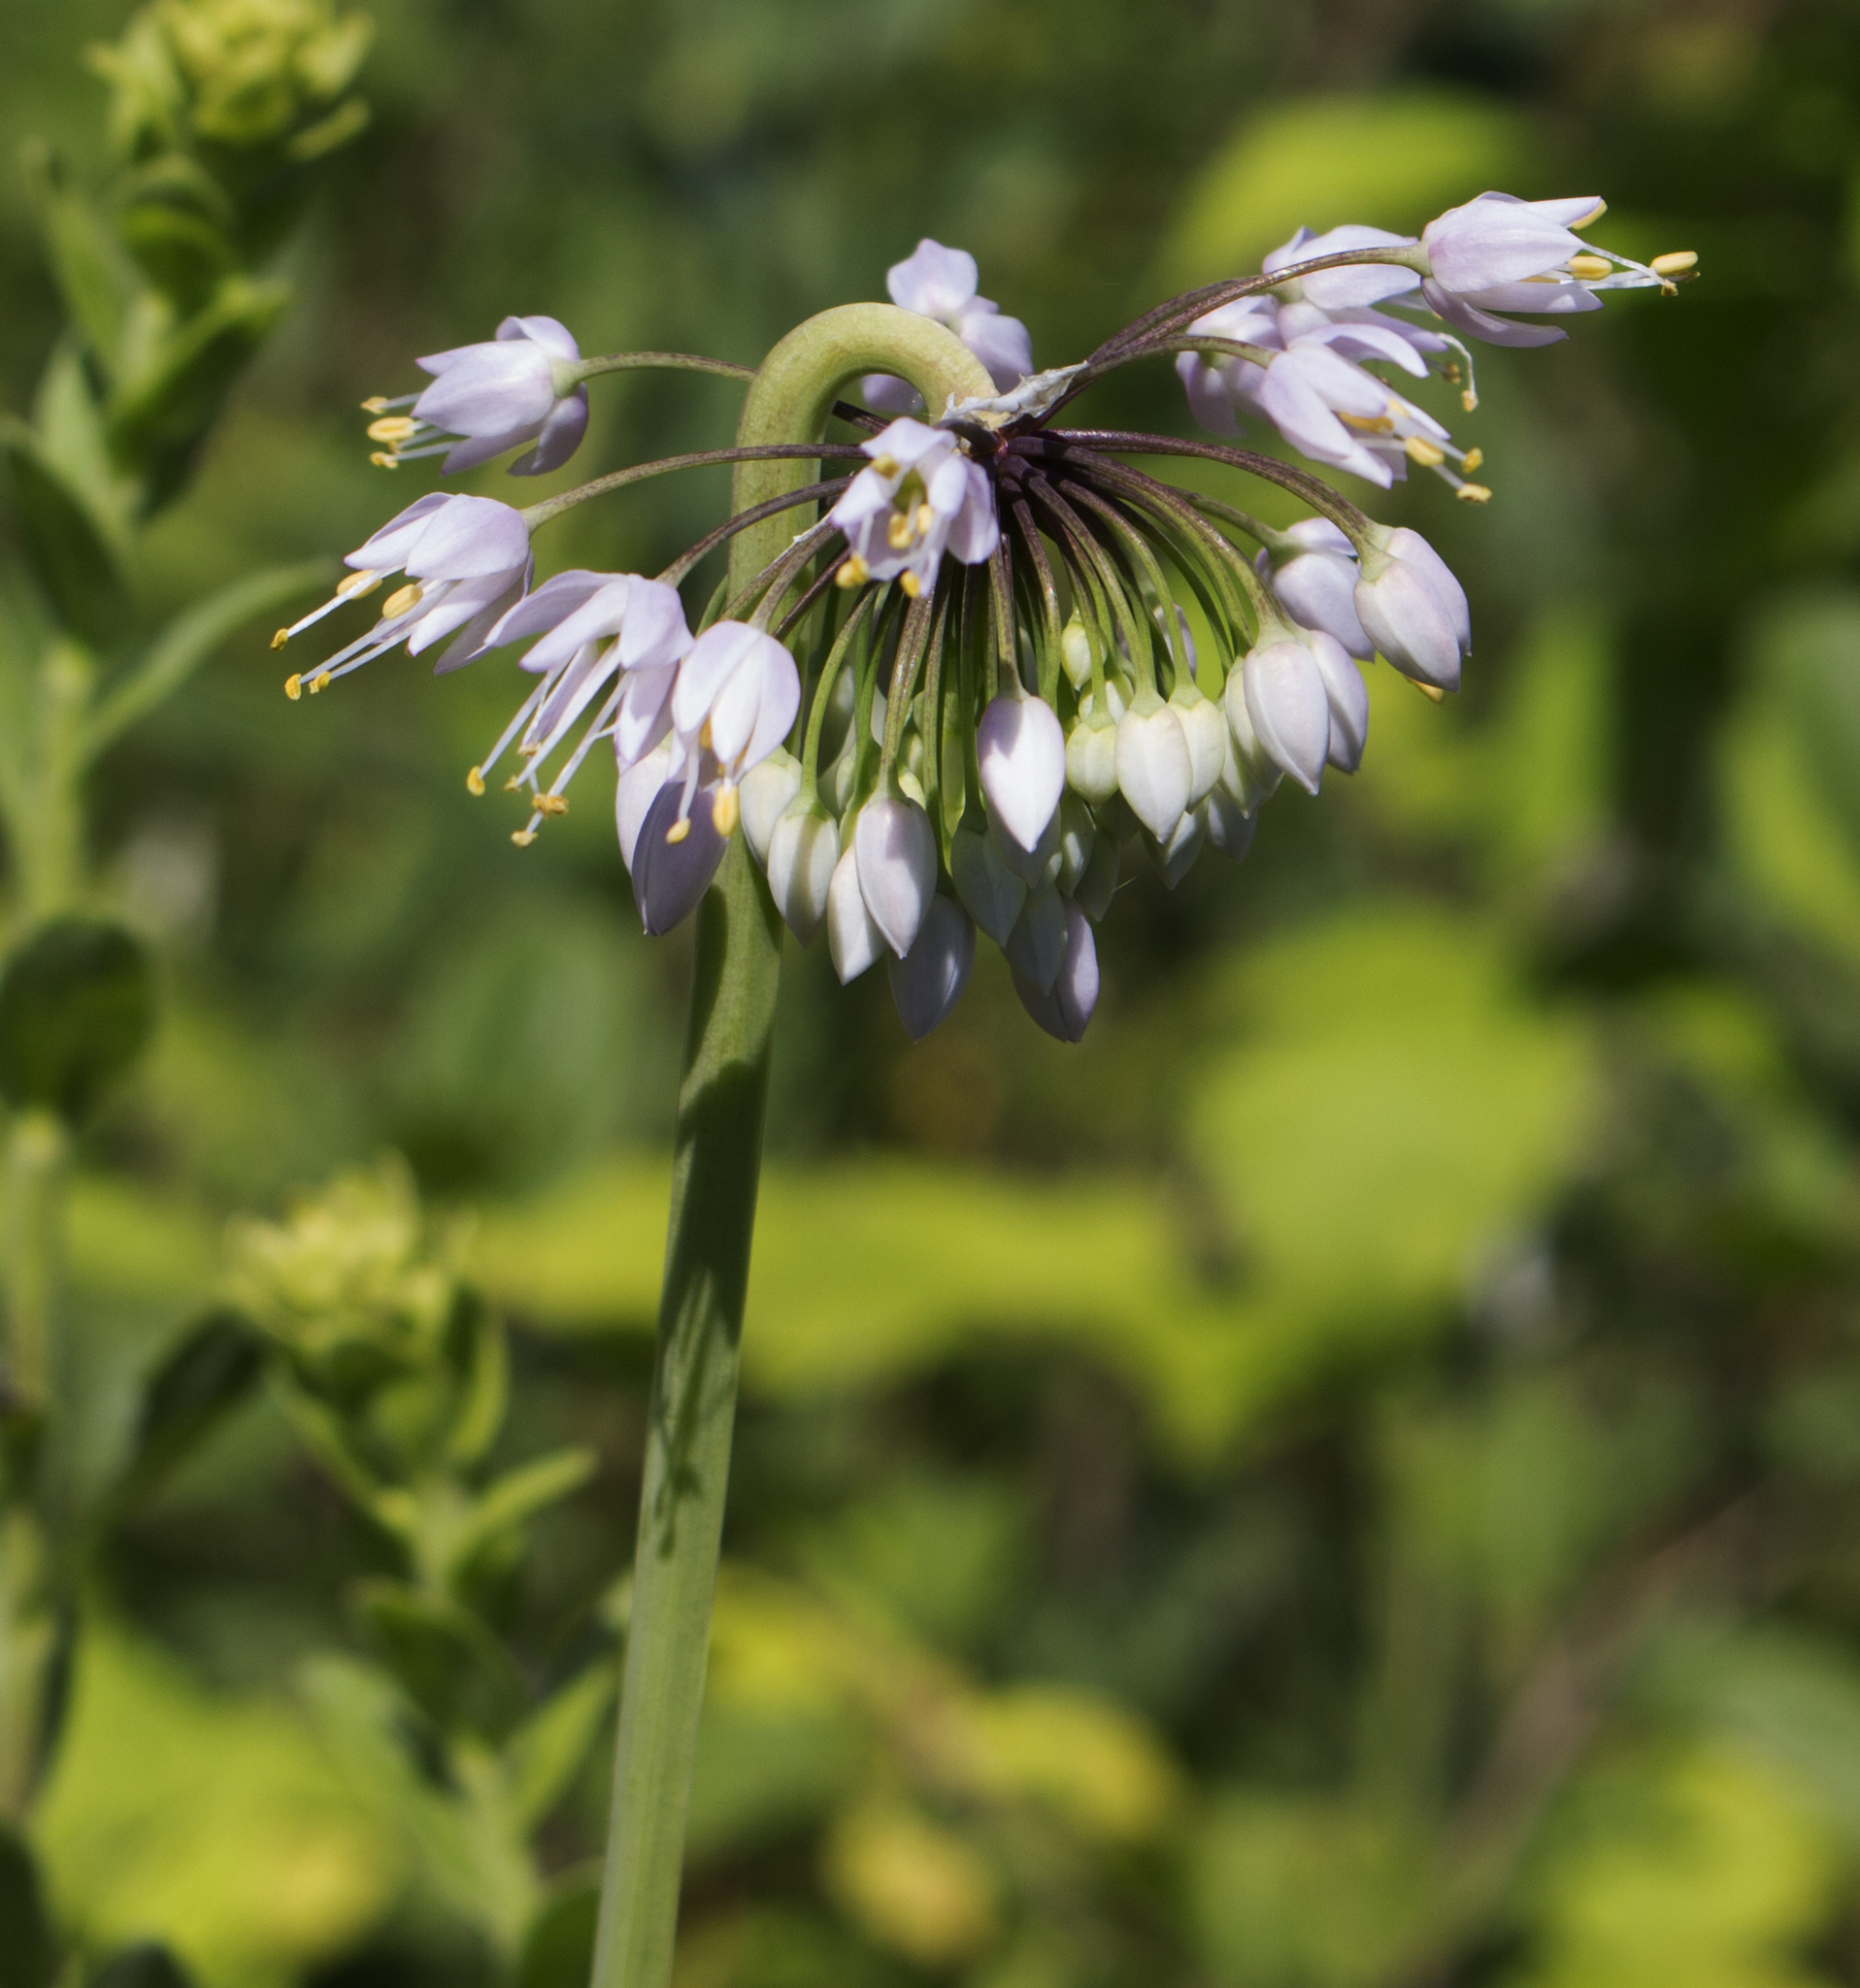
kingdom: Plantae
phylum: Tracheophyta
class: Liliopsida
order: Asparagales
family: Amaryllidaceae
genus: Allium
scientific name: Allium cernuum
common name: Nodding onion
